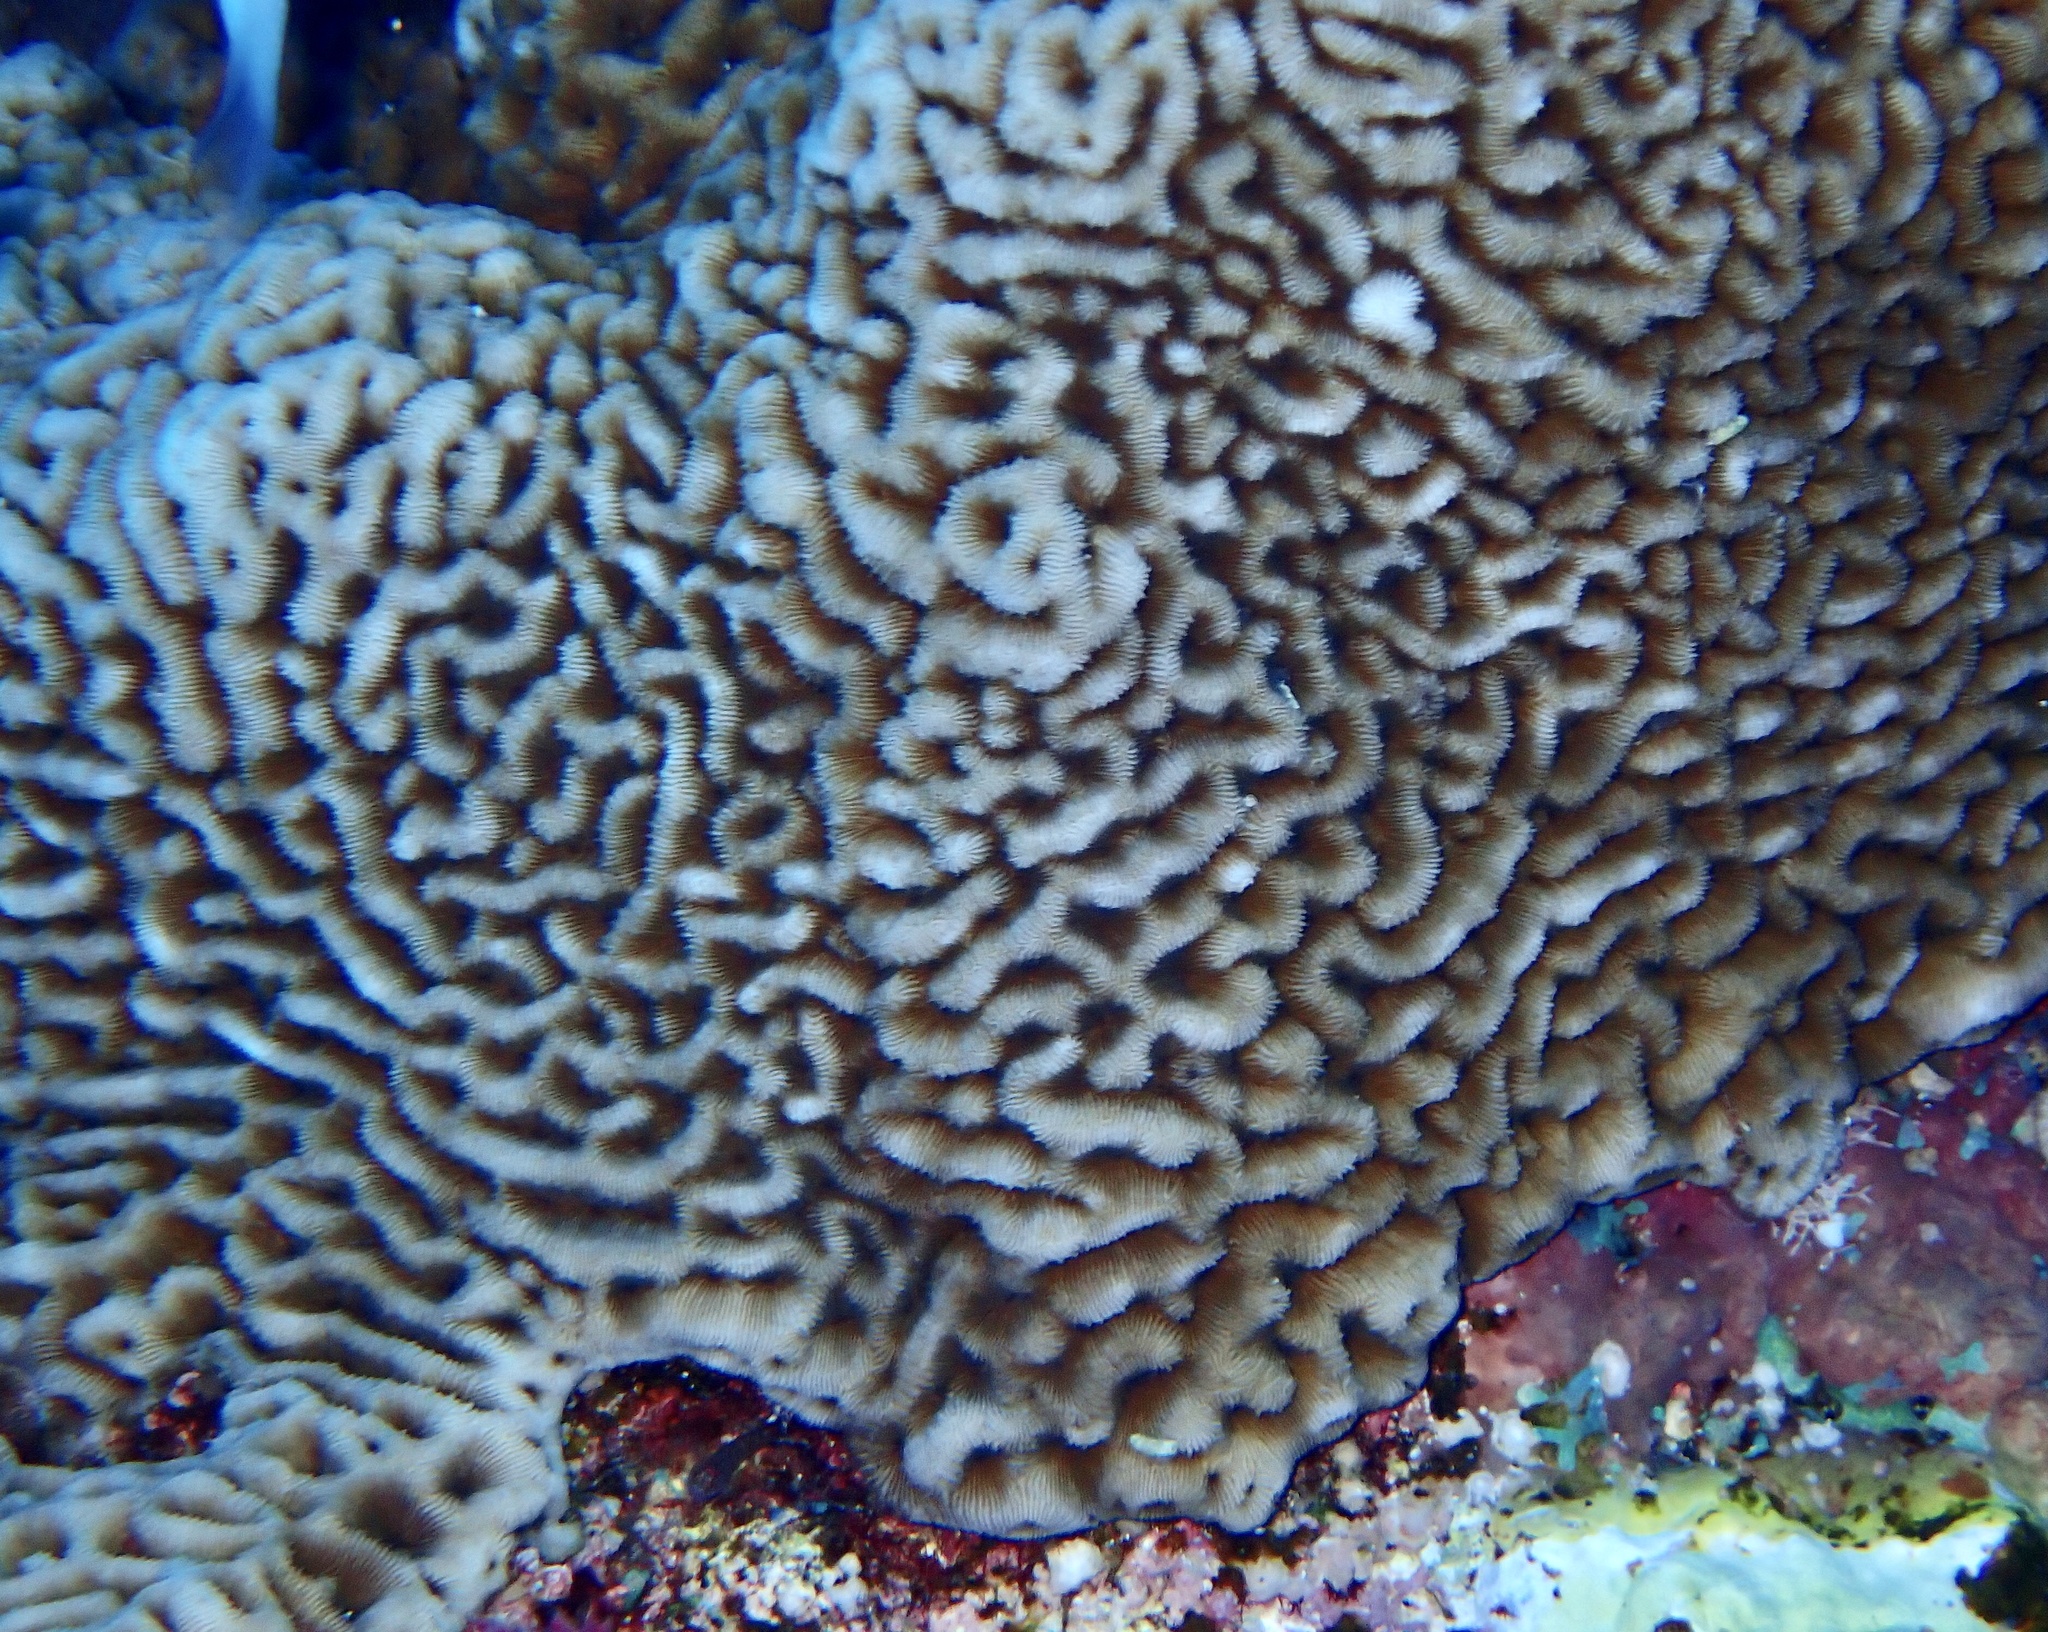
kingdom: Animalia
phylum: Cnidaria
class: Anthozoa
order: Scleractinia
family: Coscinaraeidae
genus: Coscinaraea
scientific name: Coscinaraea monile
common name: Wrinkle coral
